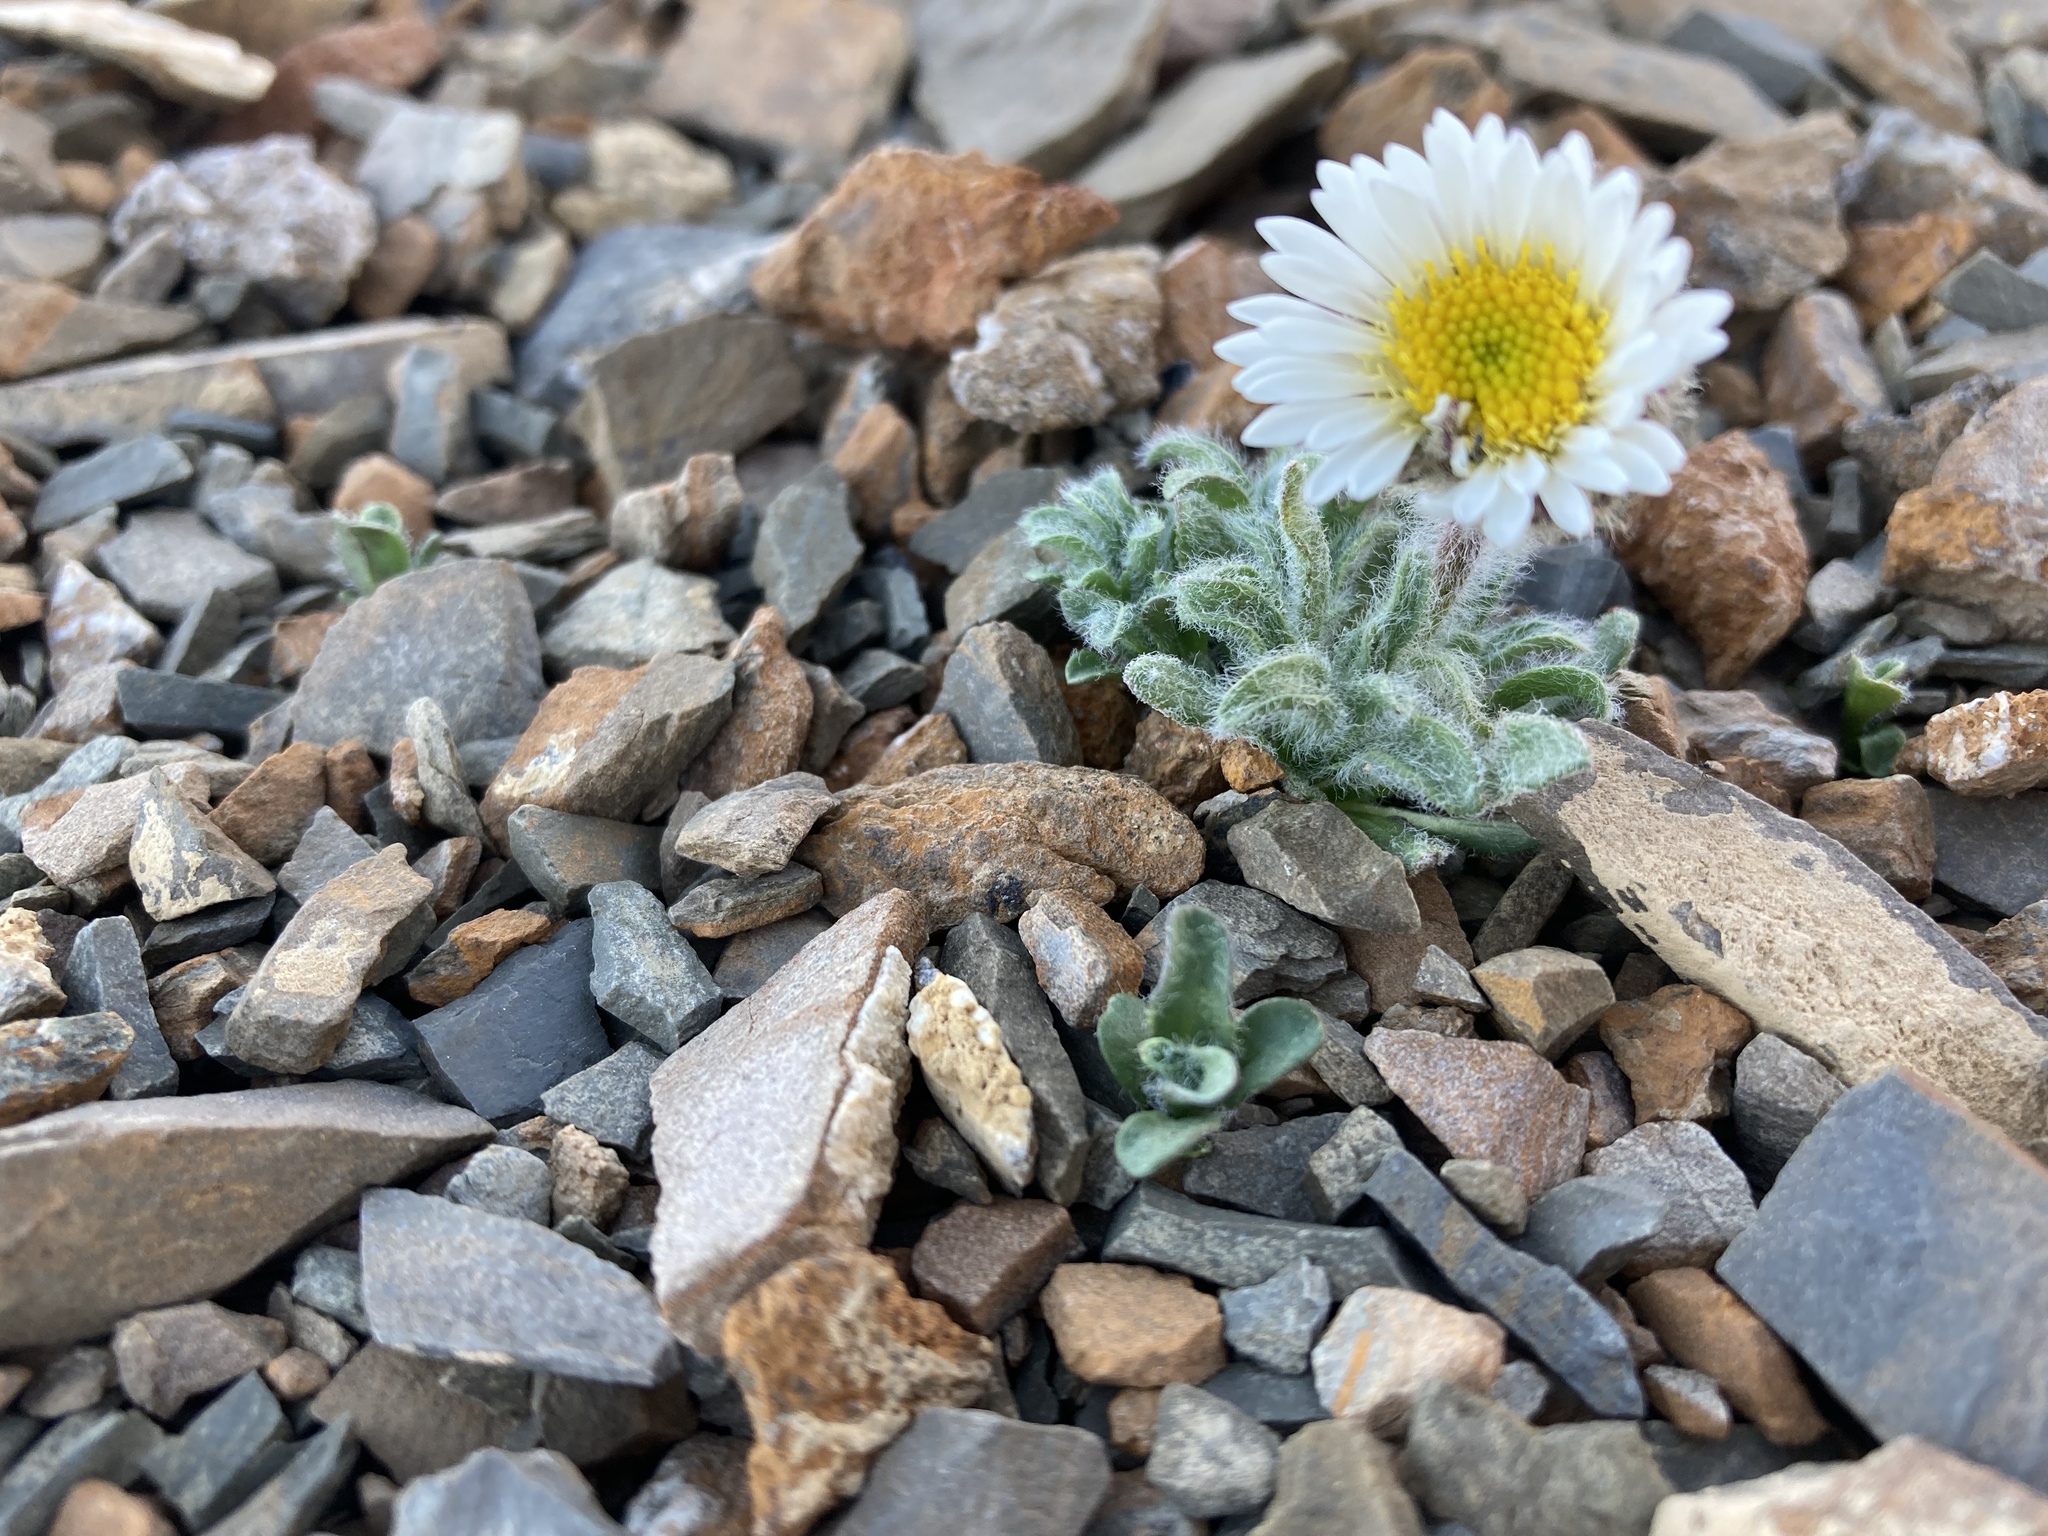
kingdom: Plantae
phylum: Tracheophyta
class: Magnoliopsida
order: Asterales
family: Asteraceae
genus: Erigeron
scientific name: Erigeron lanatus
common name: Hairy daisy
